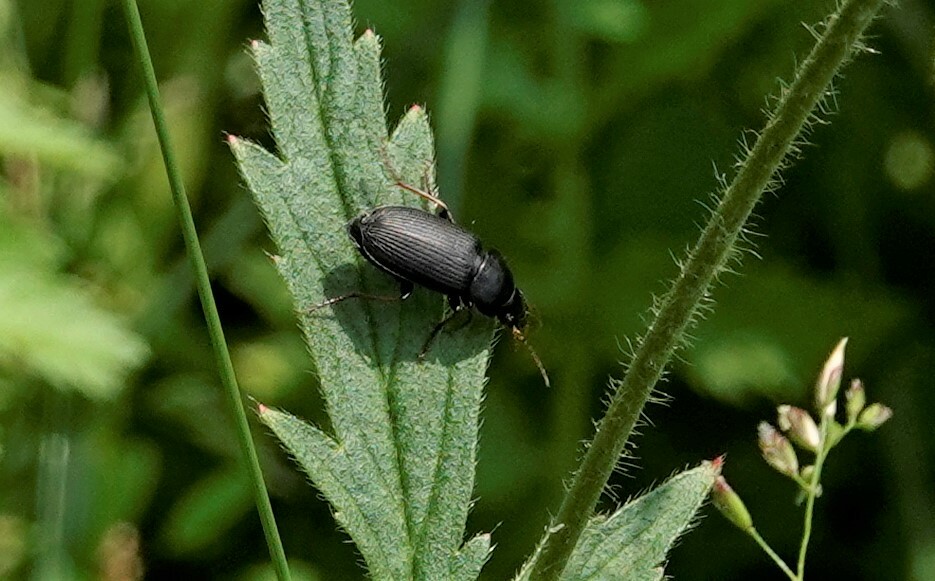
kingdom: Animalia
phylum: Arthropoda
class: Insecta
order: Coleoptera
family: Carabidae
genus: Amphasia
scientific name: Amphasia sericea
